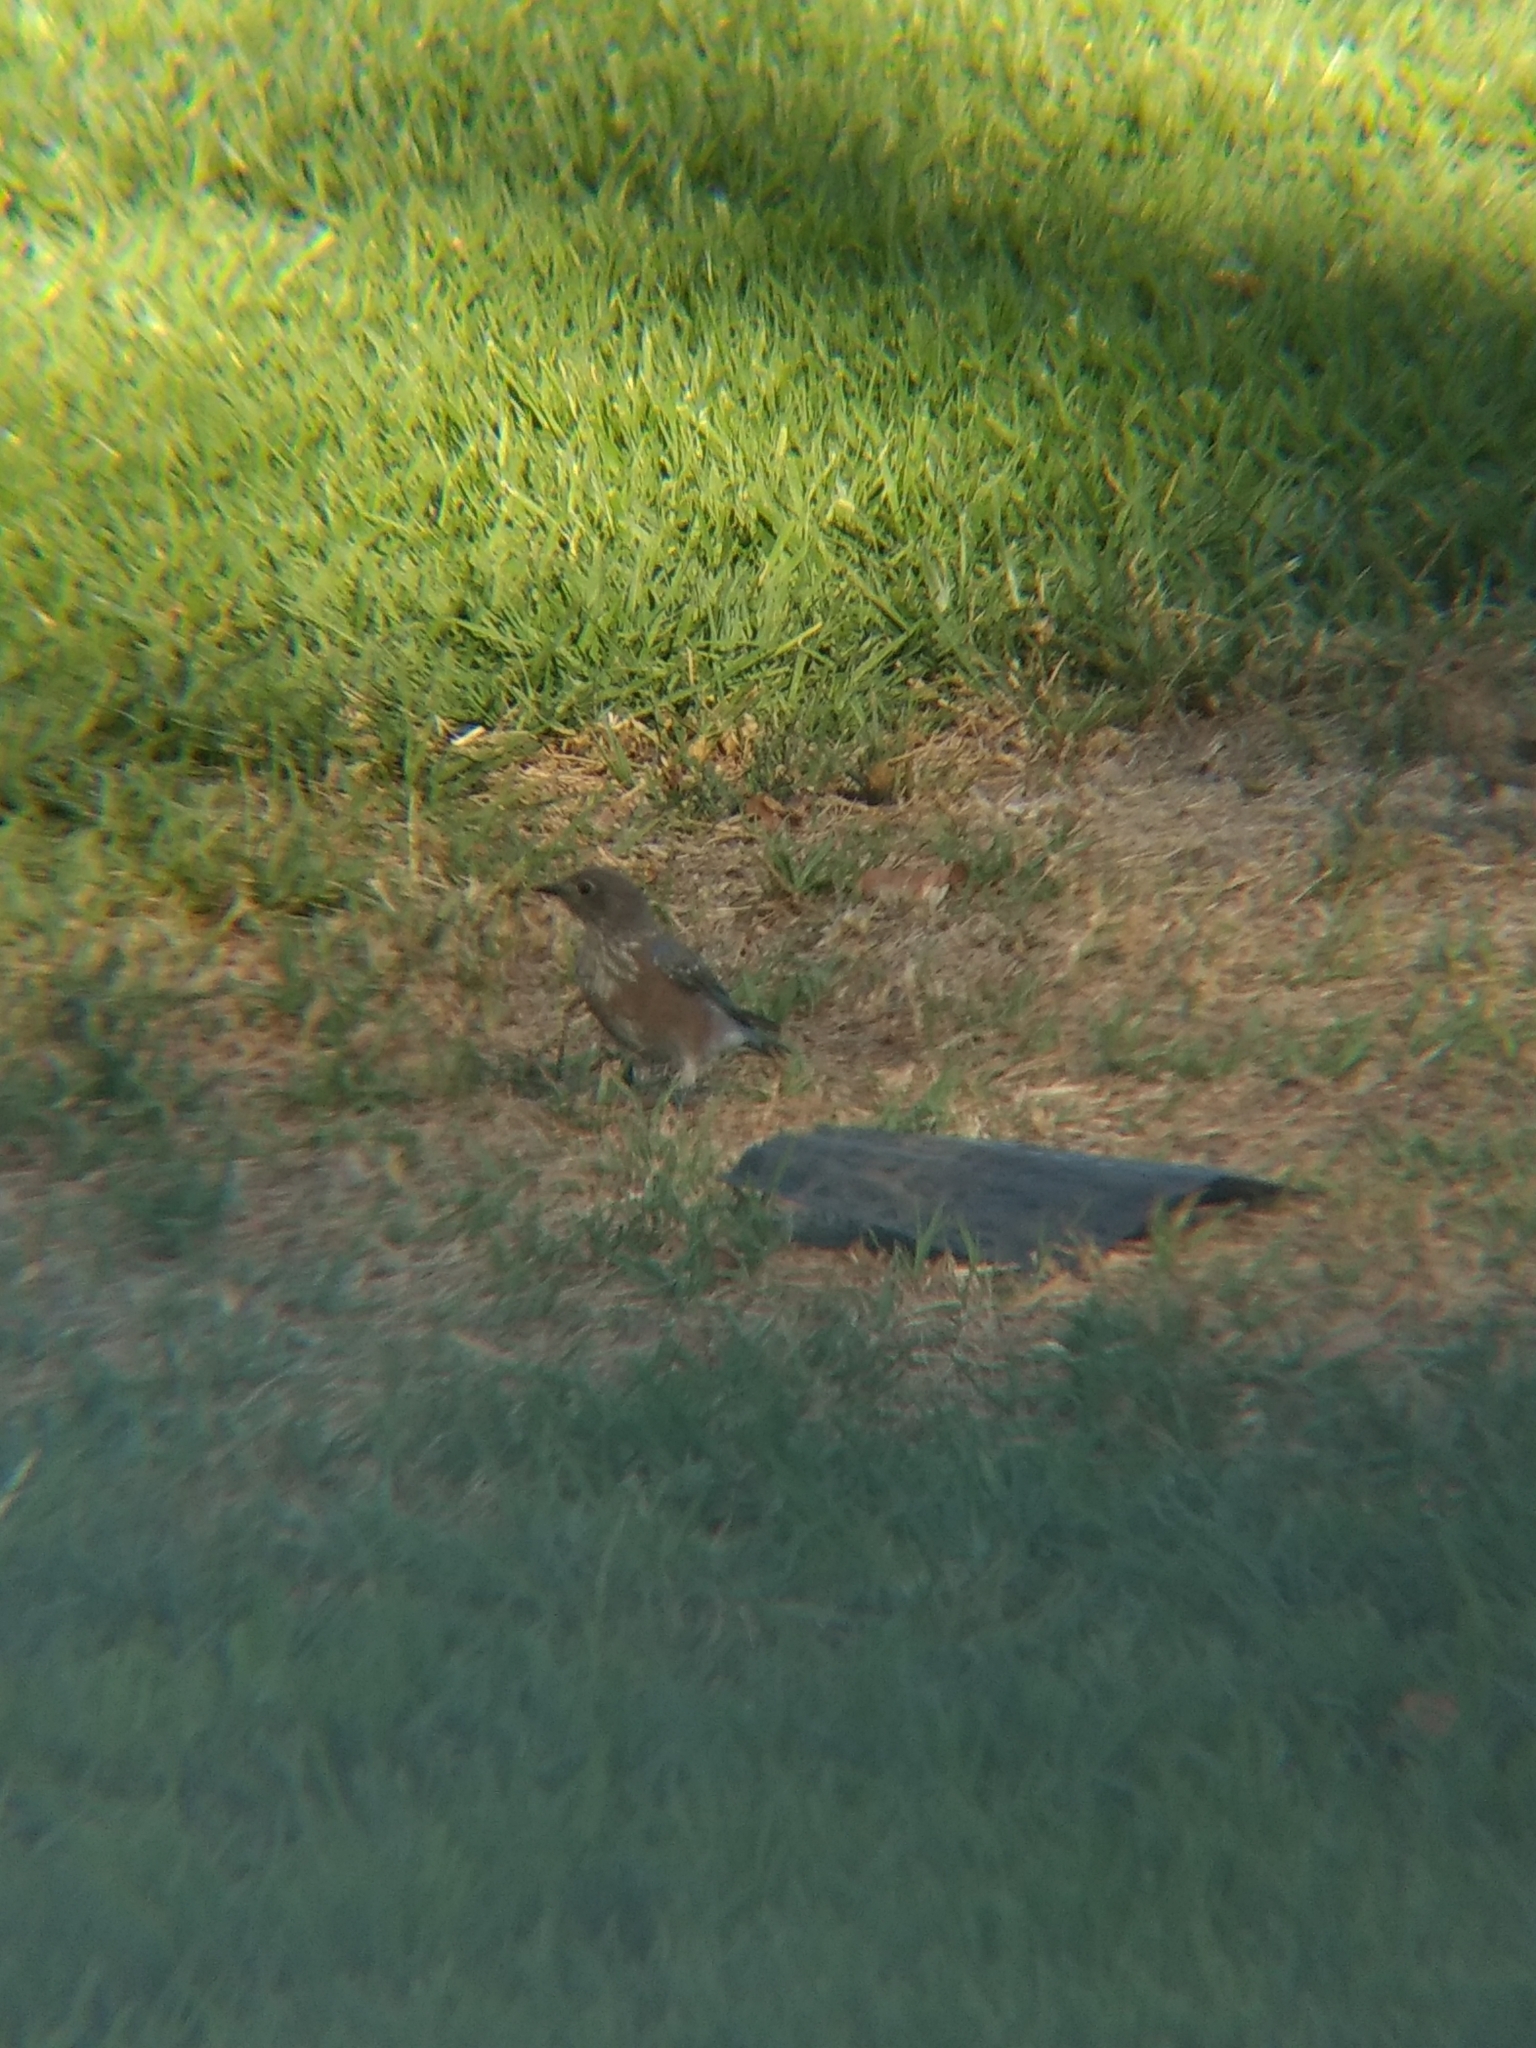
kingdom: Animalia
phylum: Chordata
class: Aves
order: Passeriformes
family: Turdidae
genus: Sialia
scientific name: Sialia mexicana
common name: Western bluebird
